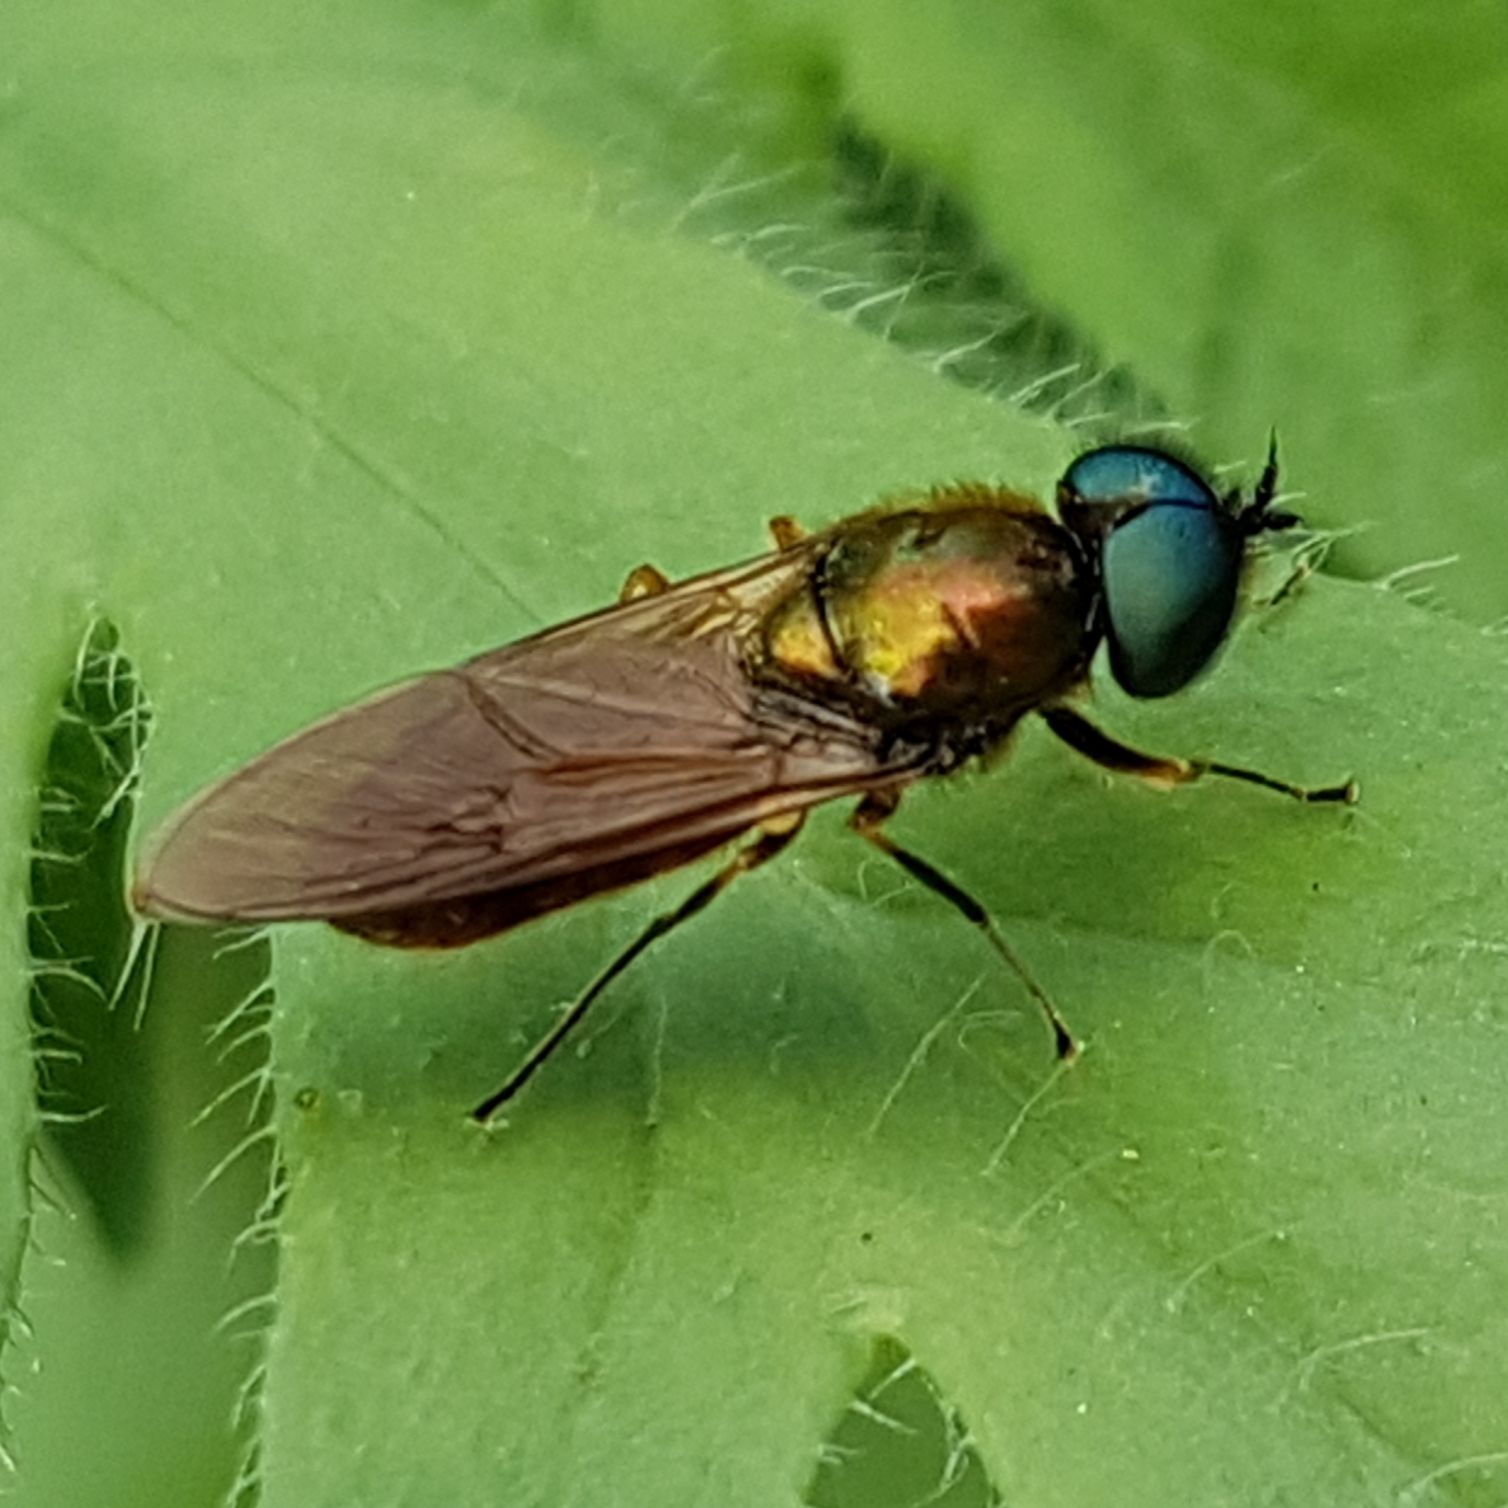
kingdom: Animalia
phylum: Arthropoda
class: Insecta
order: Diptera
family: Stratiomyidae
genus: Chloromyia
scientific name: Chloromyia formosa
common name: Soldier fly
